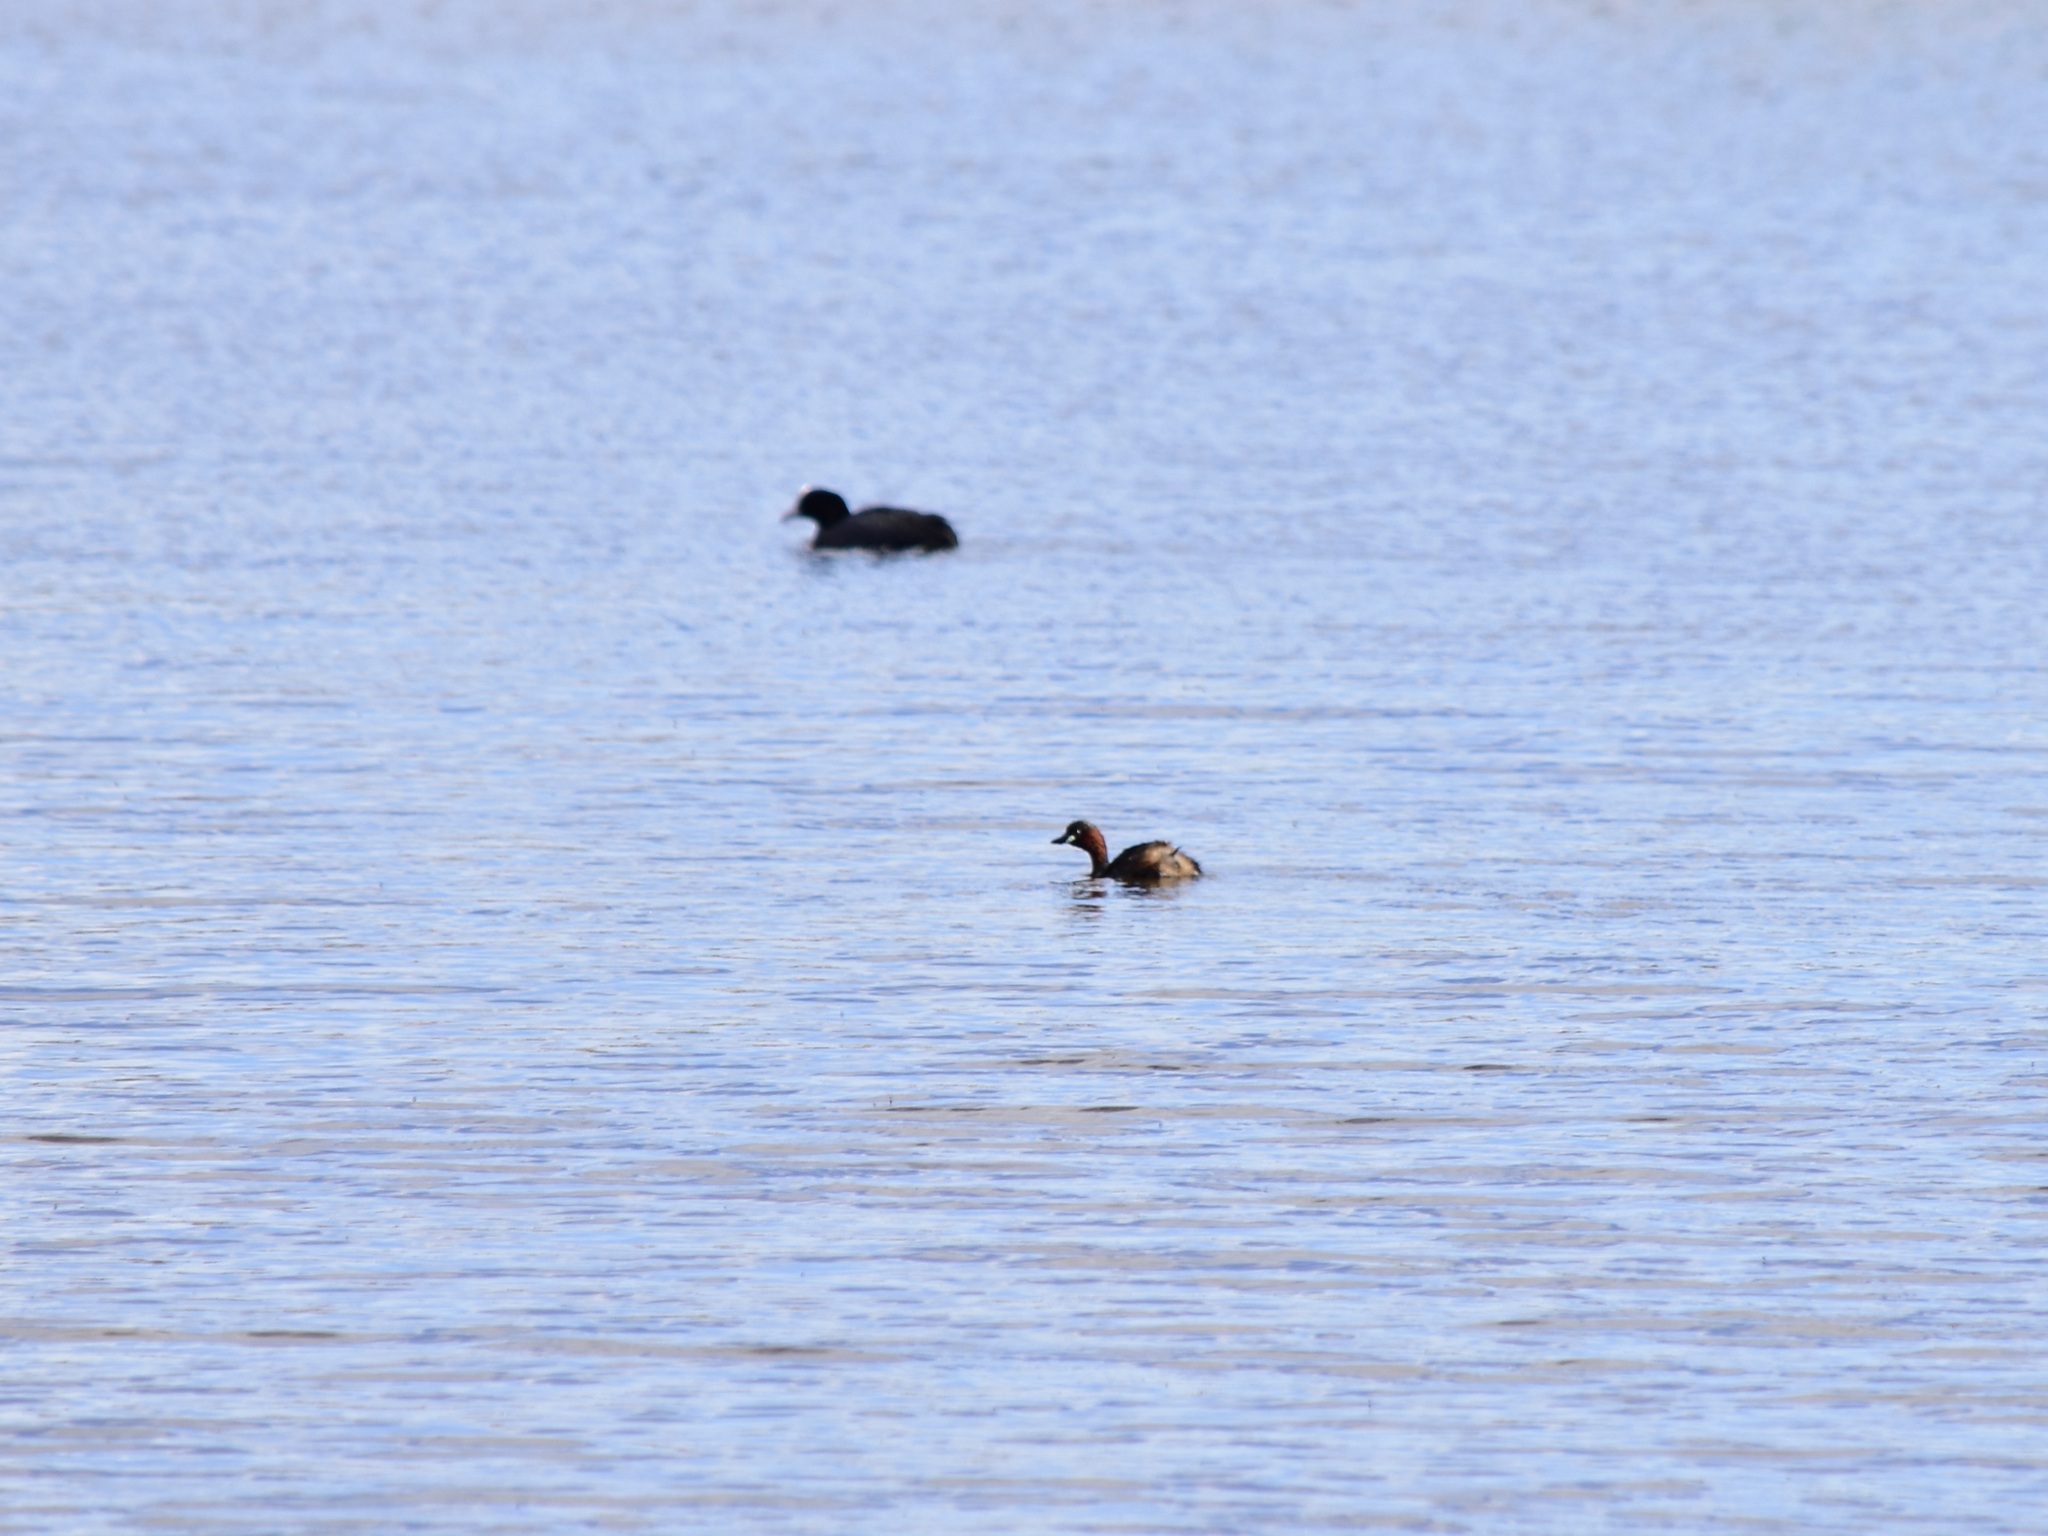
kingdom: Animalia
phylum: Chordata
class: Aves
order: Podicipediformes
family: Podicipedidae
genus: Tachybaptus
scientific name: Tachybaptus ruficollis
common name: Little grebe
